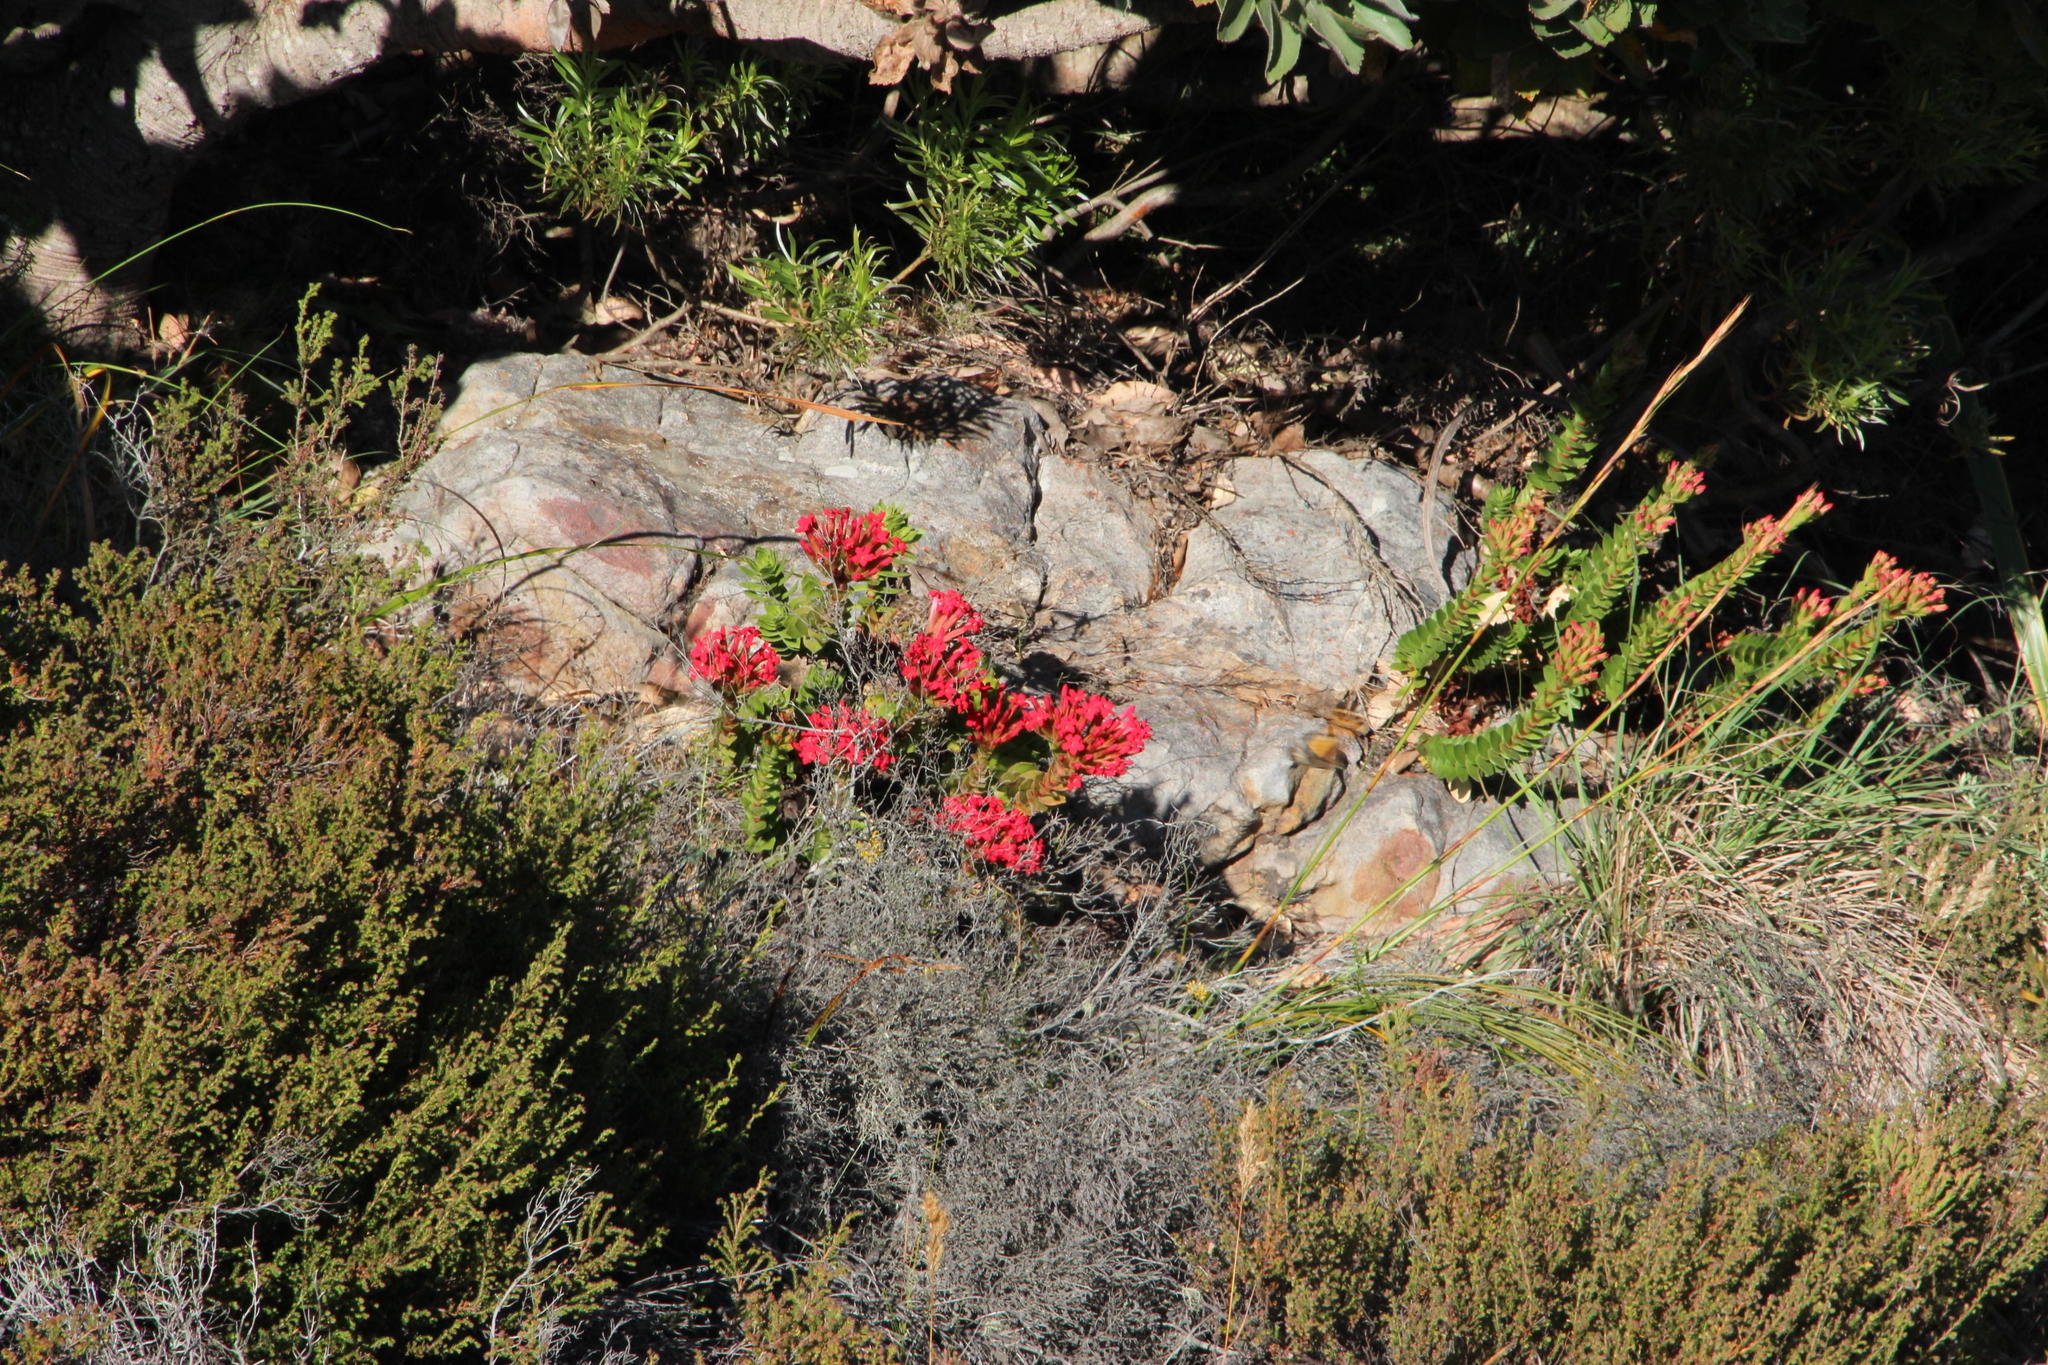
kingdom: Plantae
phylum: Tracheophyta
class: Magnoliopsida
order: Saxifragales
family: Crassulaceae
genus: Crassula
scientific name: Crassula coccinea
